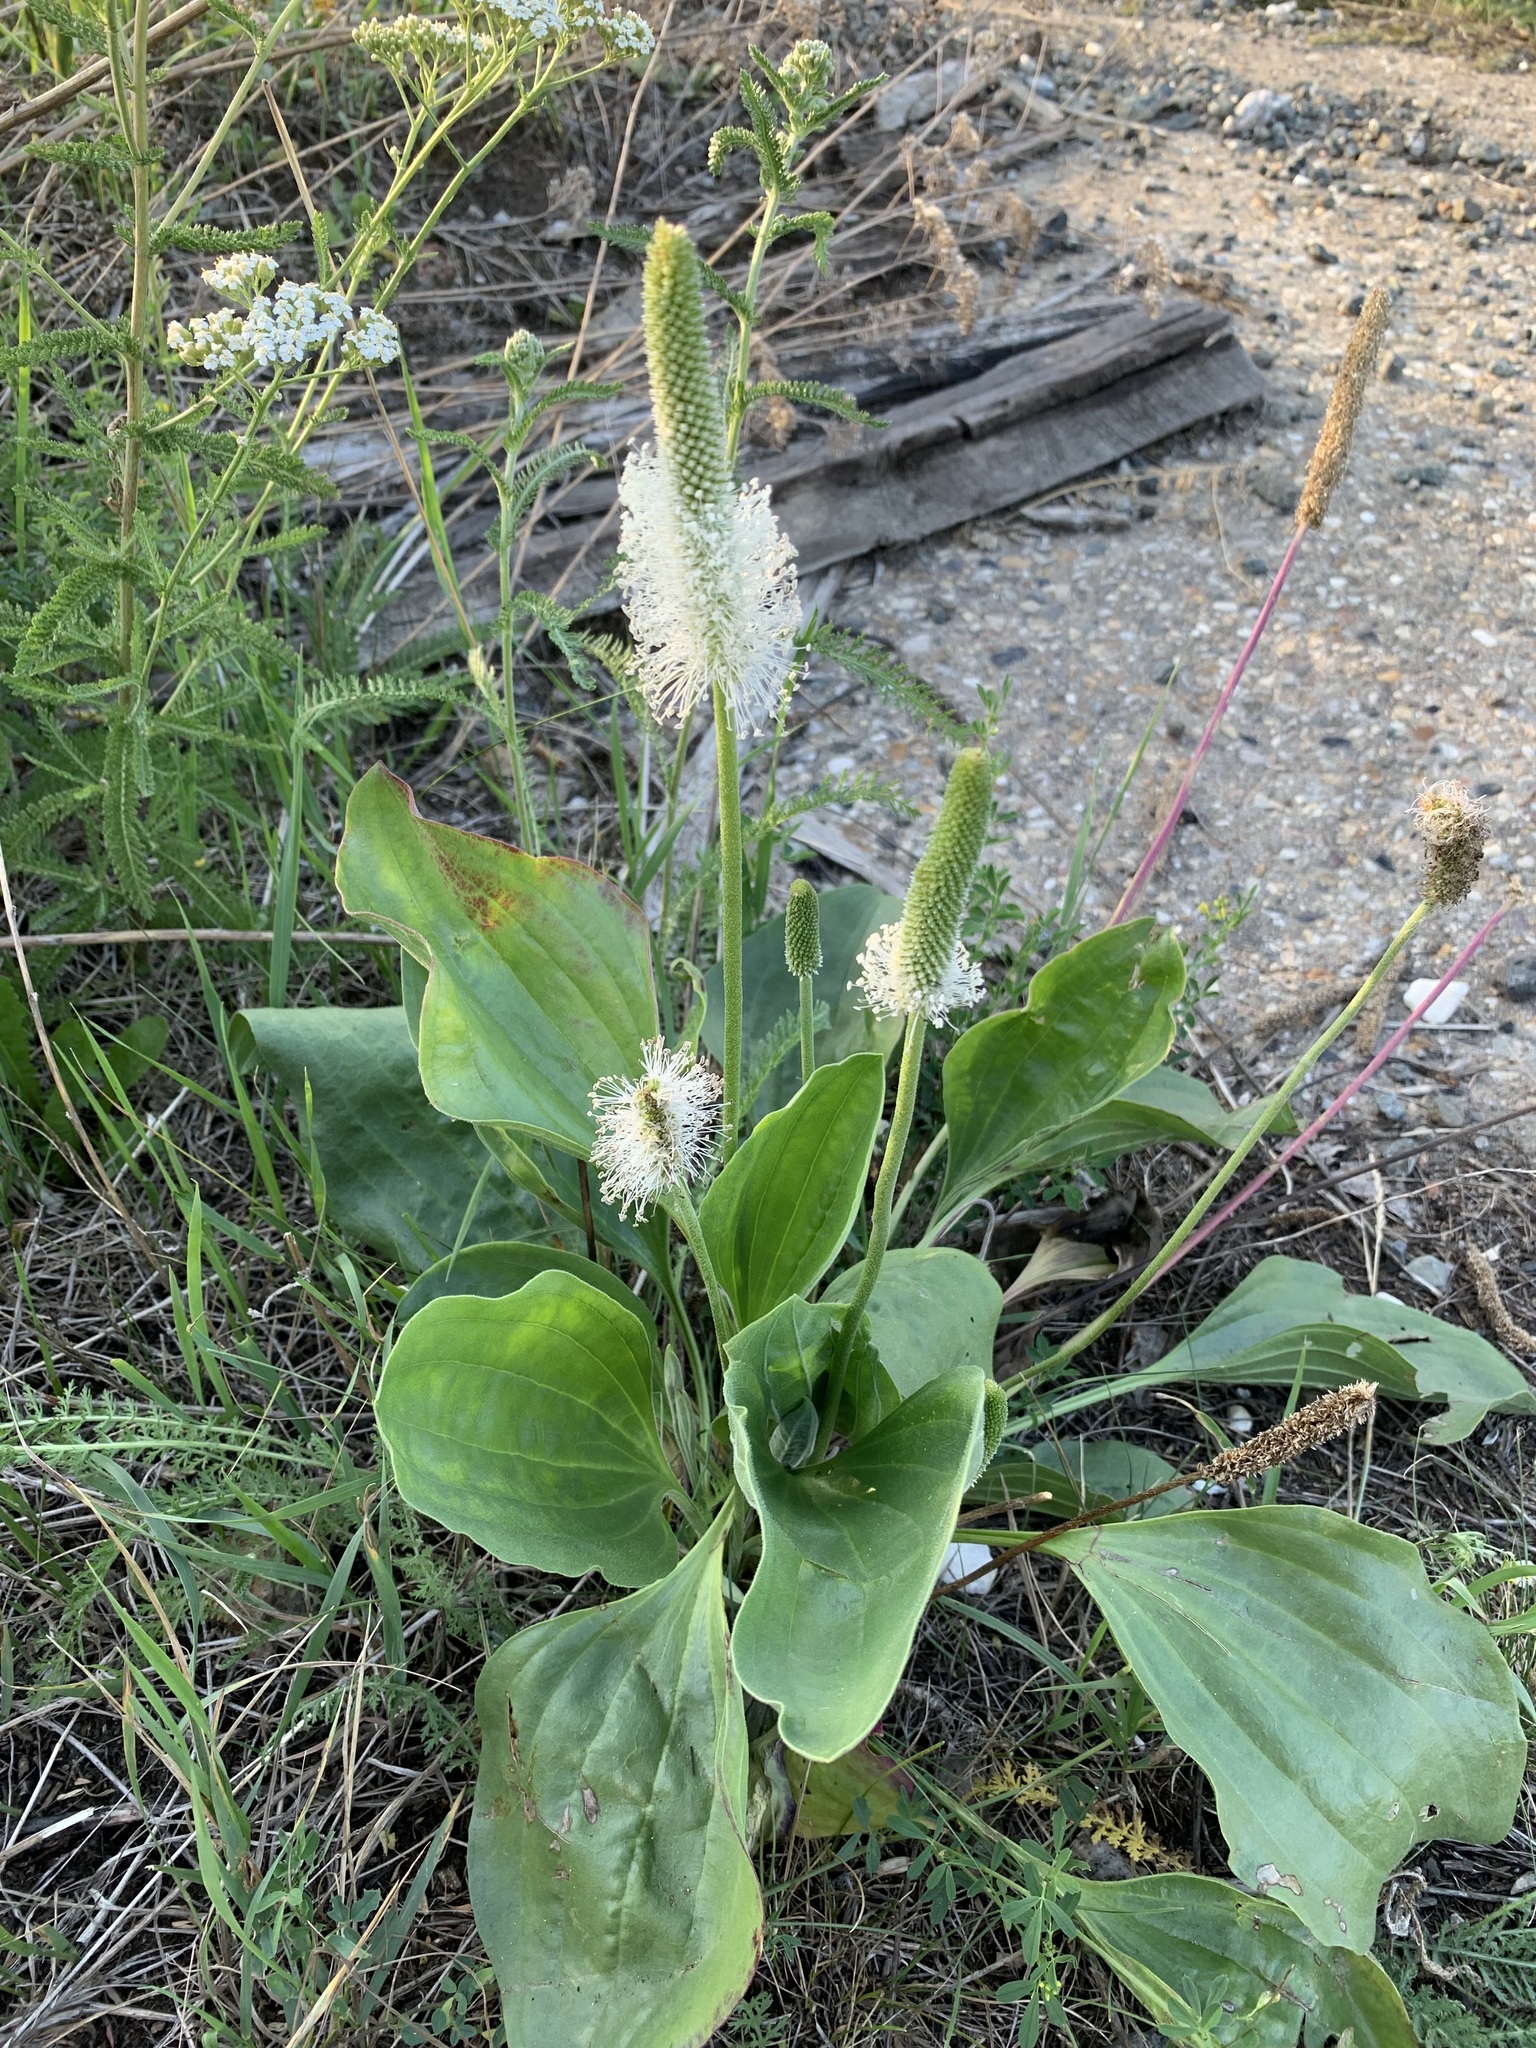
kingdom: Plantae
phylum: Tracheophyta
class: Magnoliopsida
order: Lamiales
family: Plantaginaceae
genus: Plantago
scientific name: Plantago maxima
